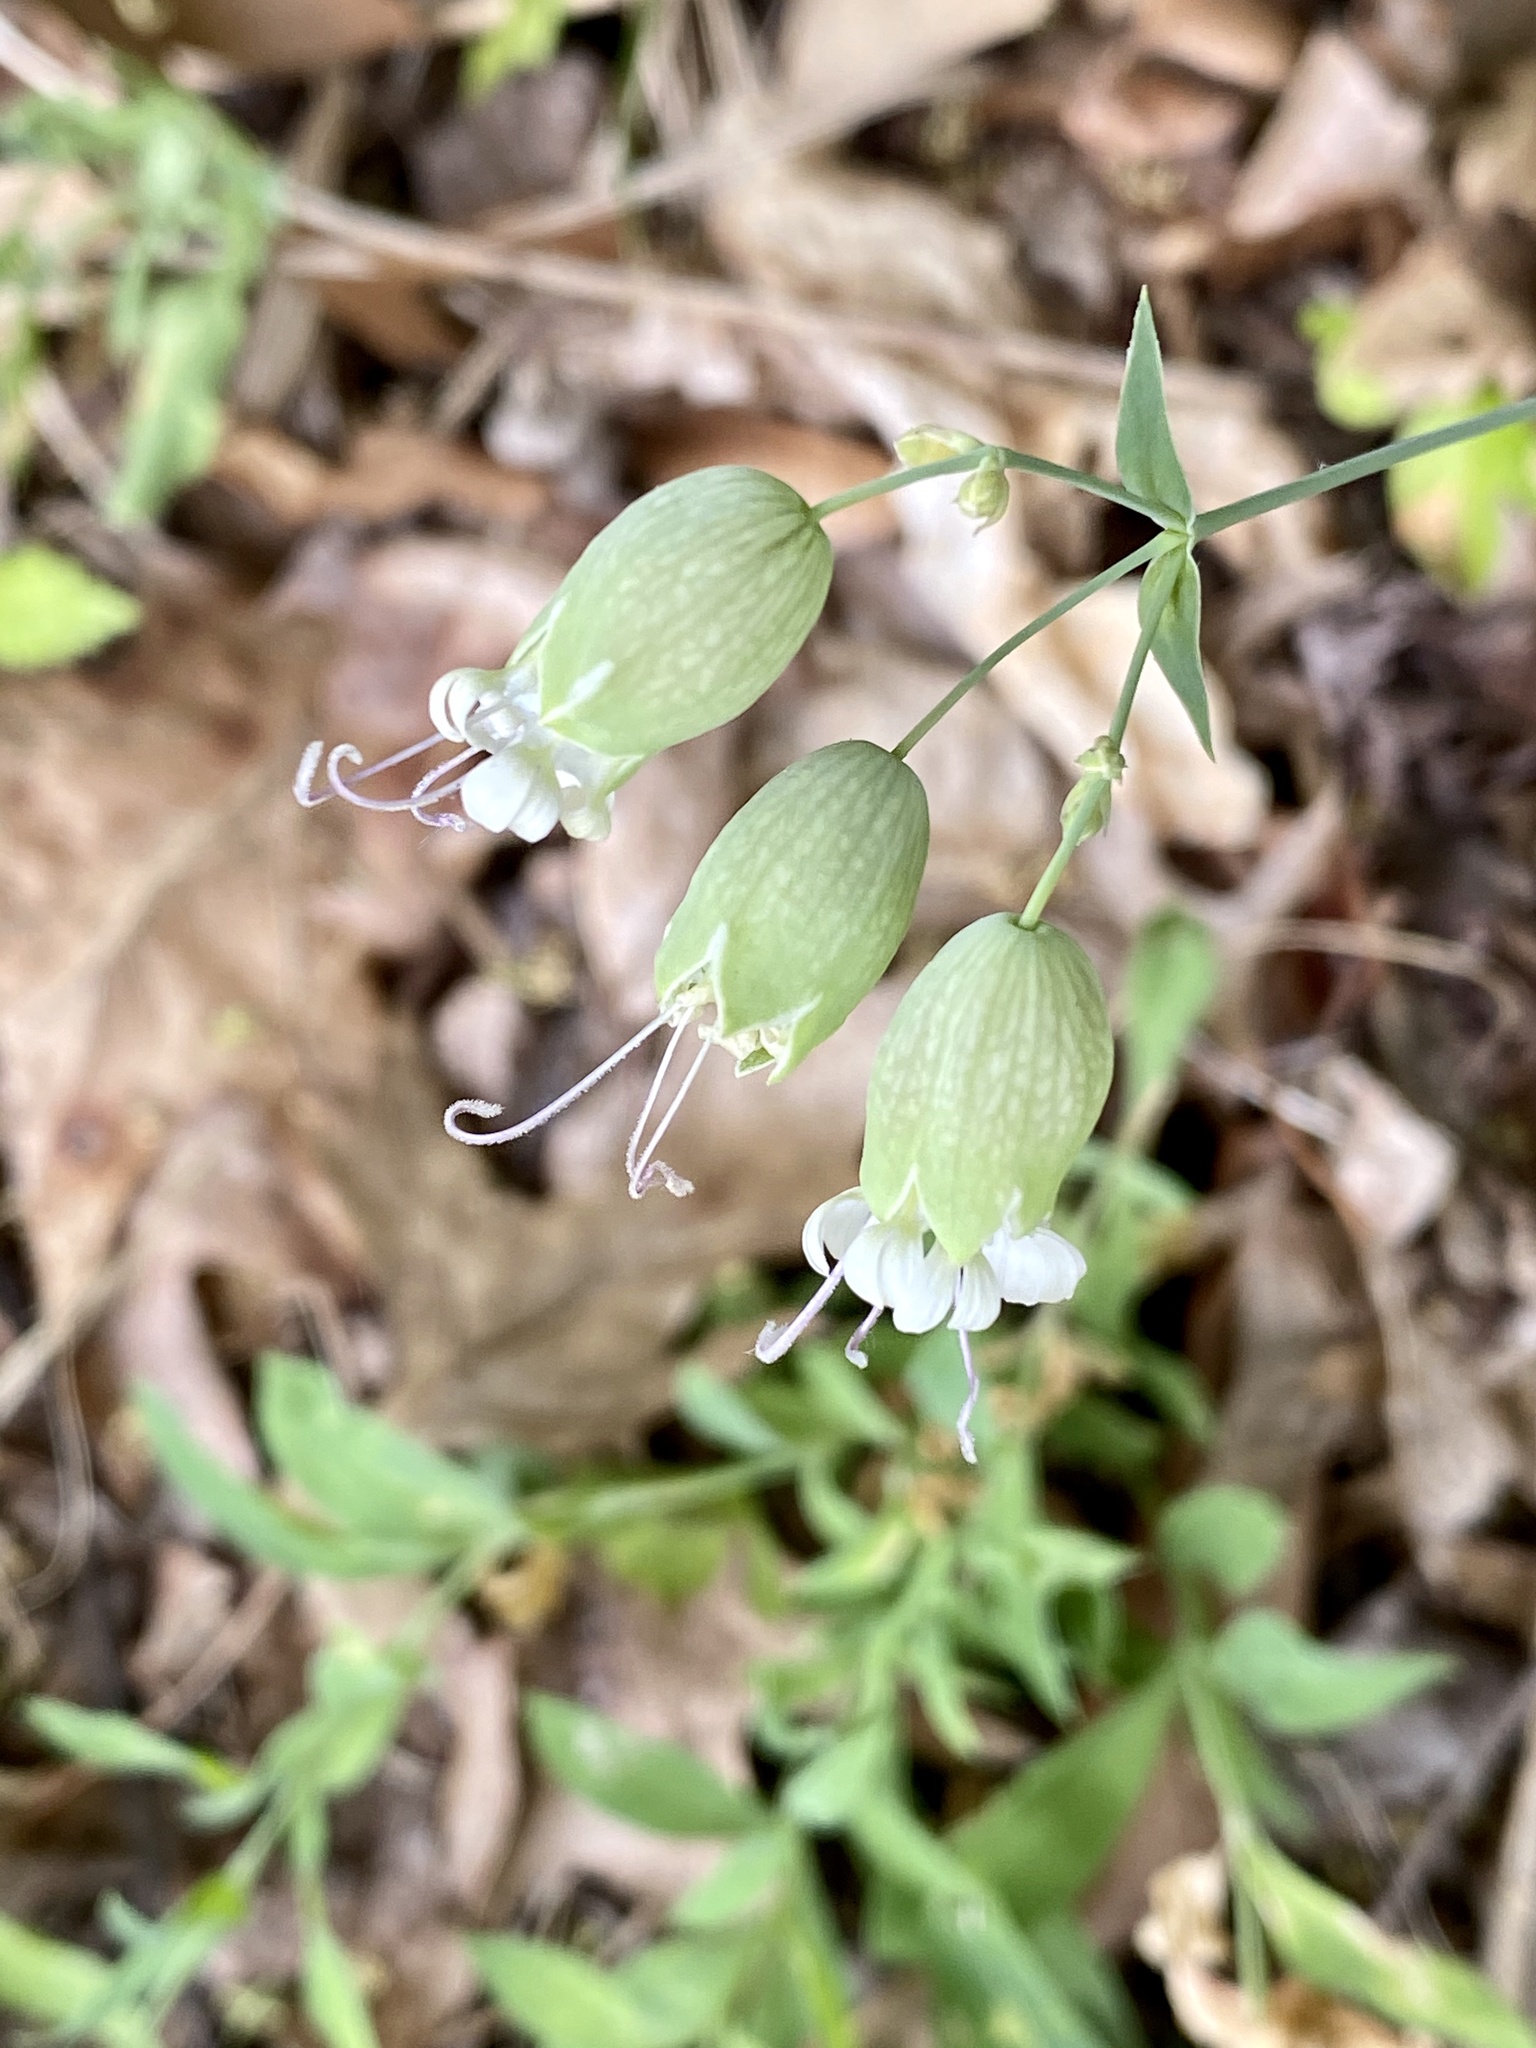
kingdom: Plantae
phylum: Tracheophyta
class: Magnoliopsida
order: Caryophyllales
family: Caryophyllaceae
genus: Silene
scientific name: Silene vulgaris
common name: Bladder campion
